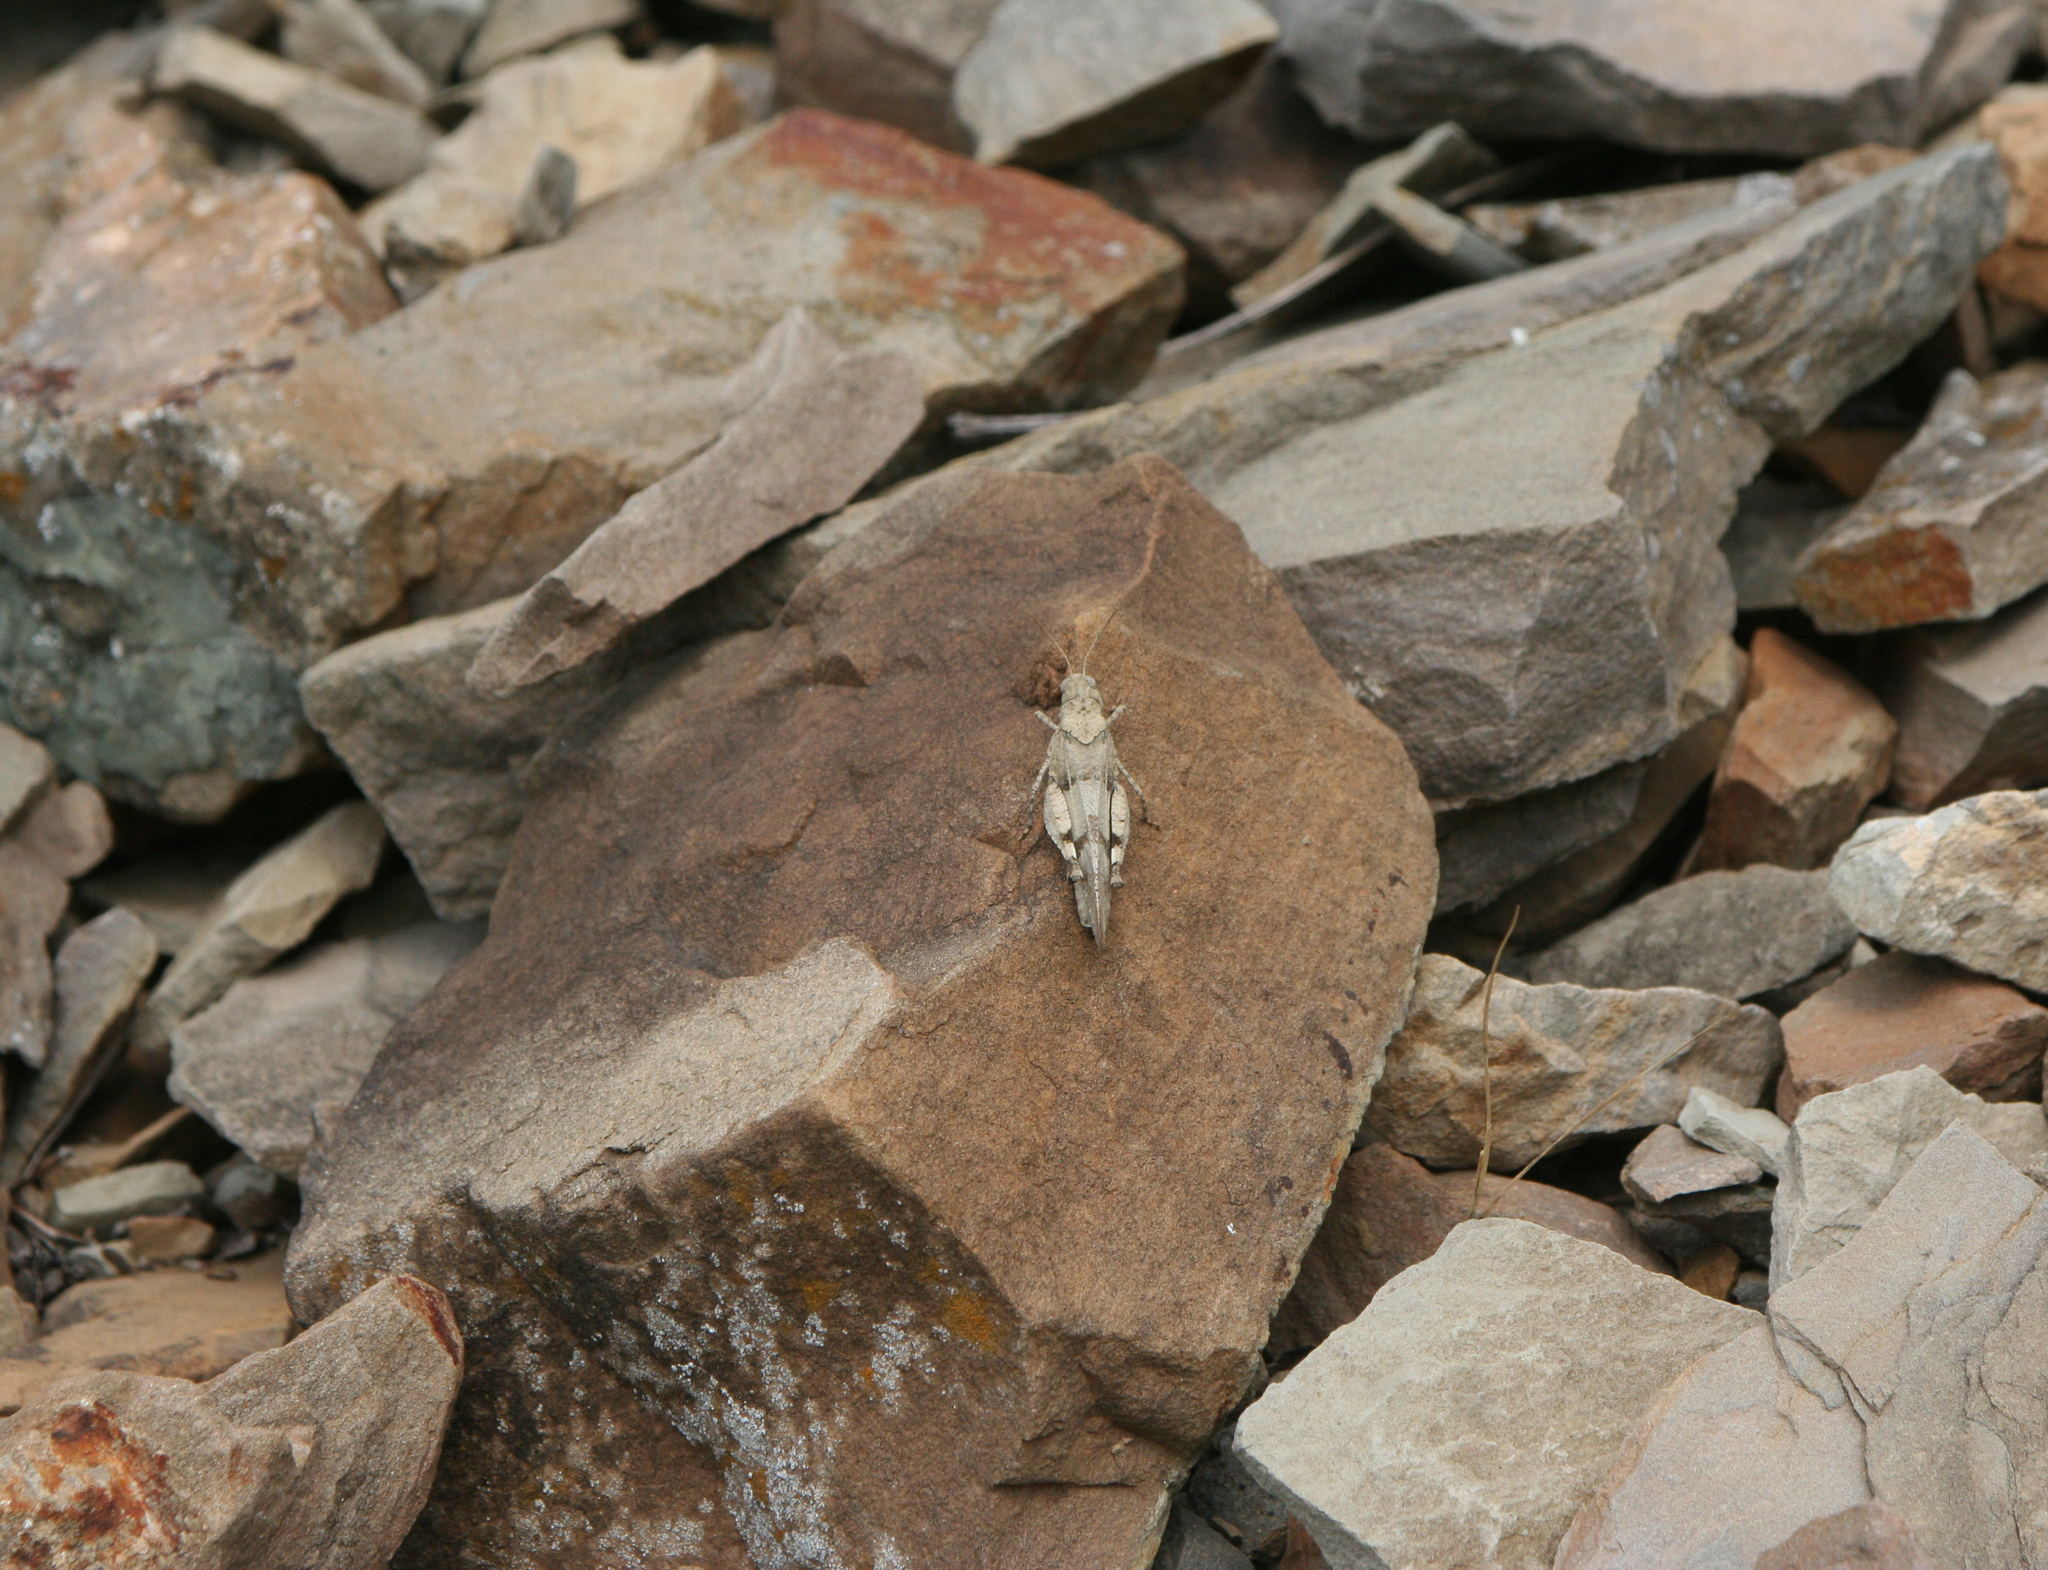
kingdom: Animalia
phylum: Arthropoda
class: Insecta
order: Orthoptera
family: Acrididae
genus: Oedipoda
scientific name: Oedipoda caerulescens
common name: Blue-winged grasshopper
